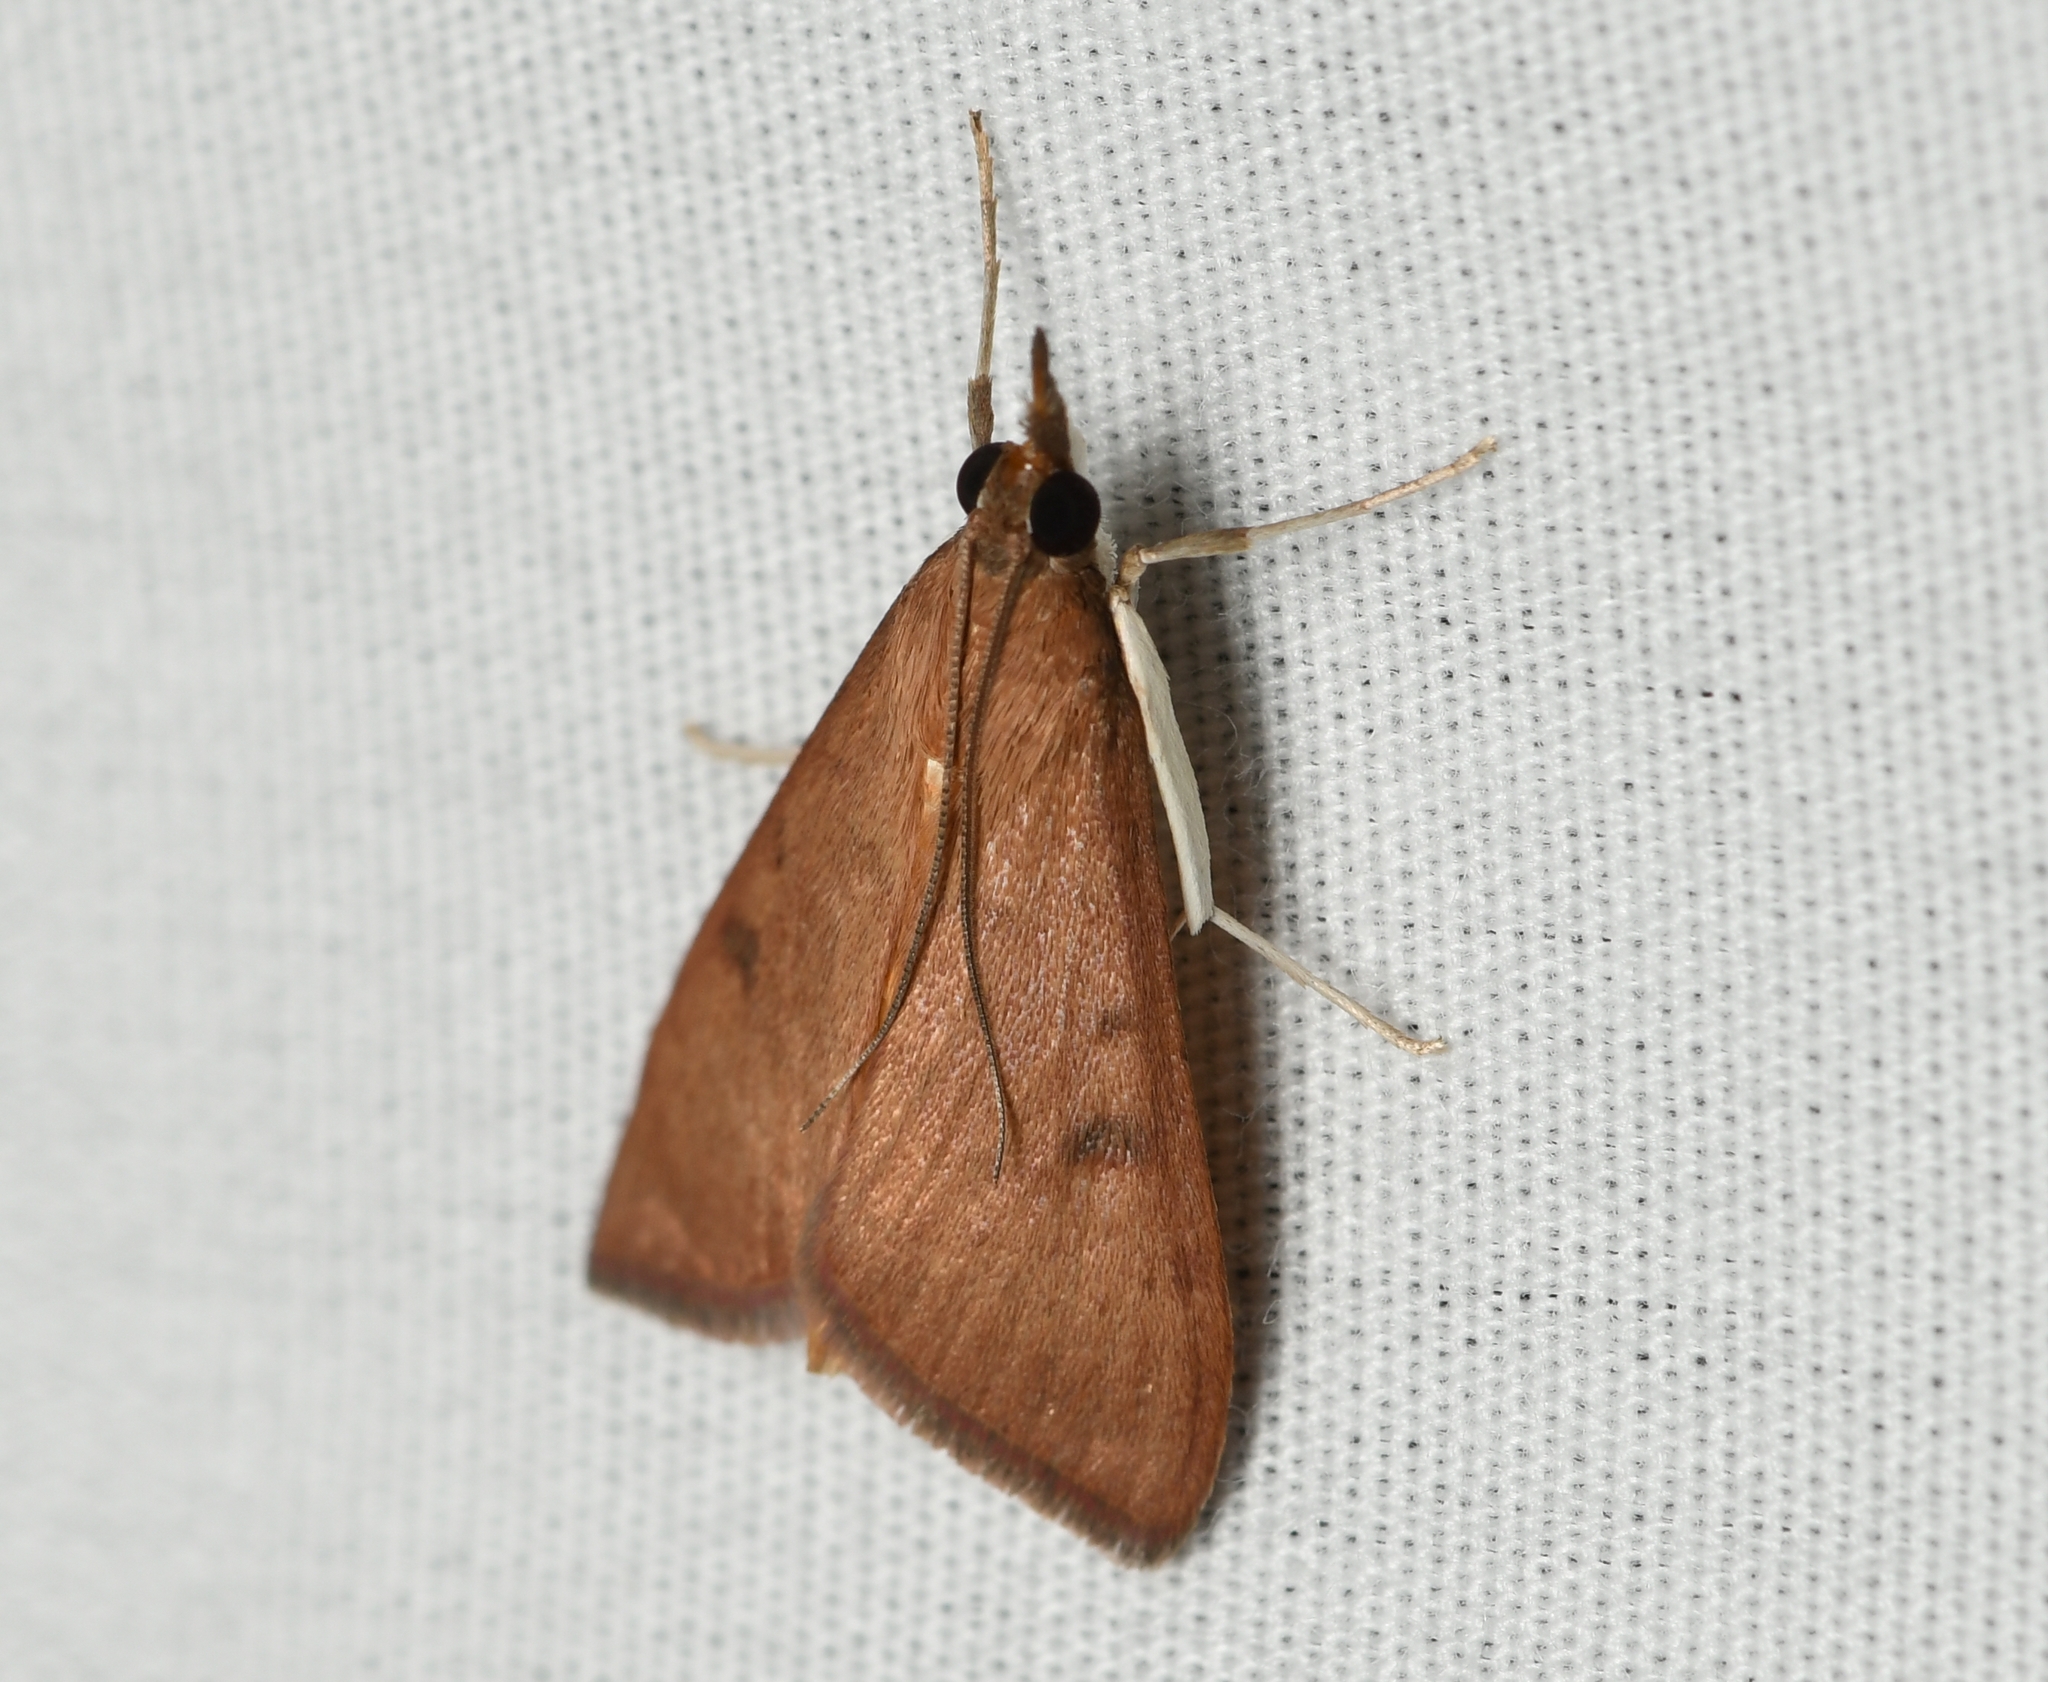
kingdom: Animalia
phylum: Arthropoda
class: Insecta
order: Lepidoptera
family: Crambidae
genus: Uresiphita
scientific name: Uresiphita reversalis
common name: Genista broom moth
